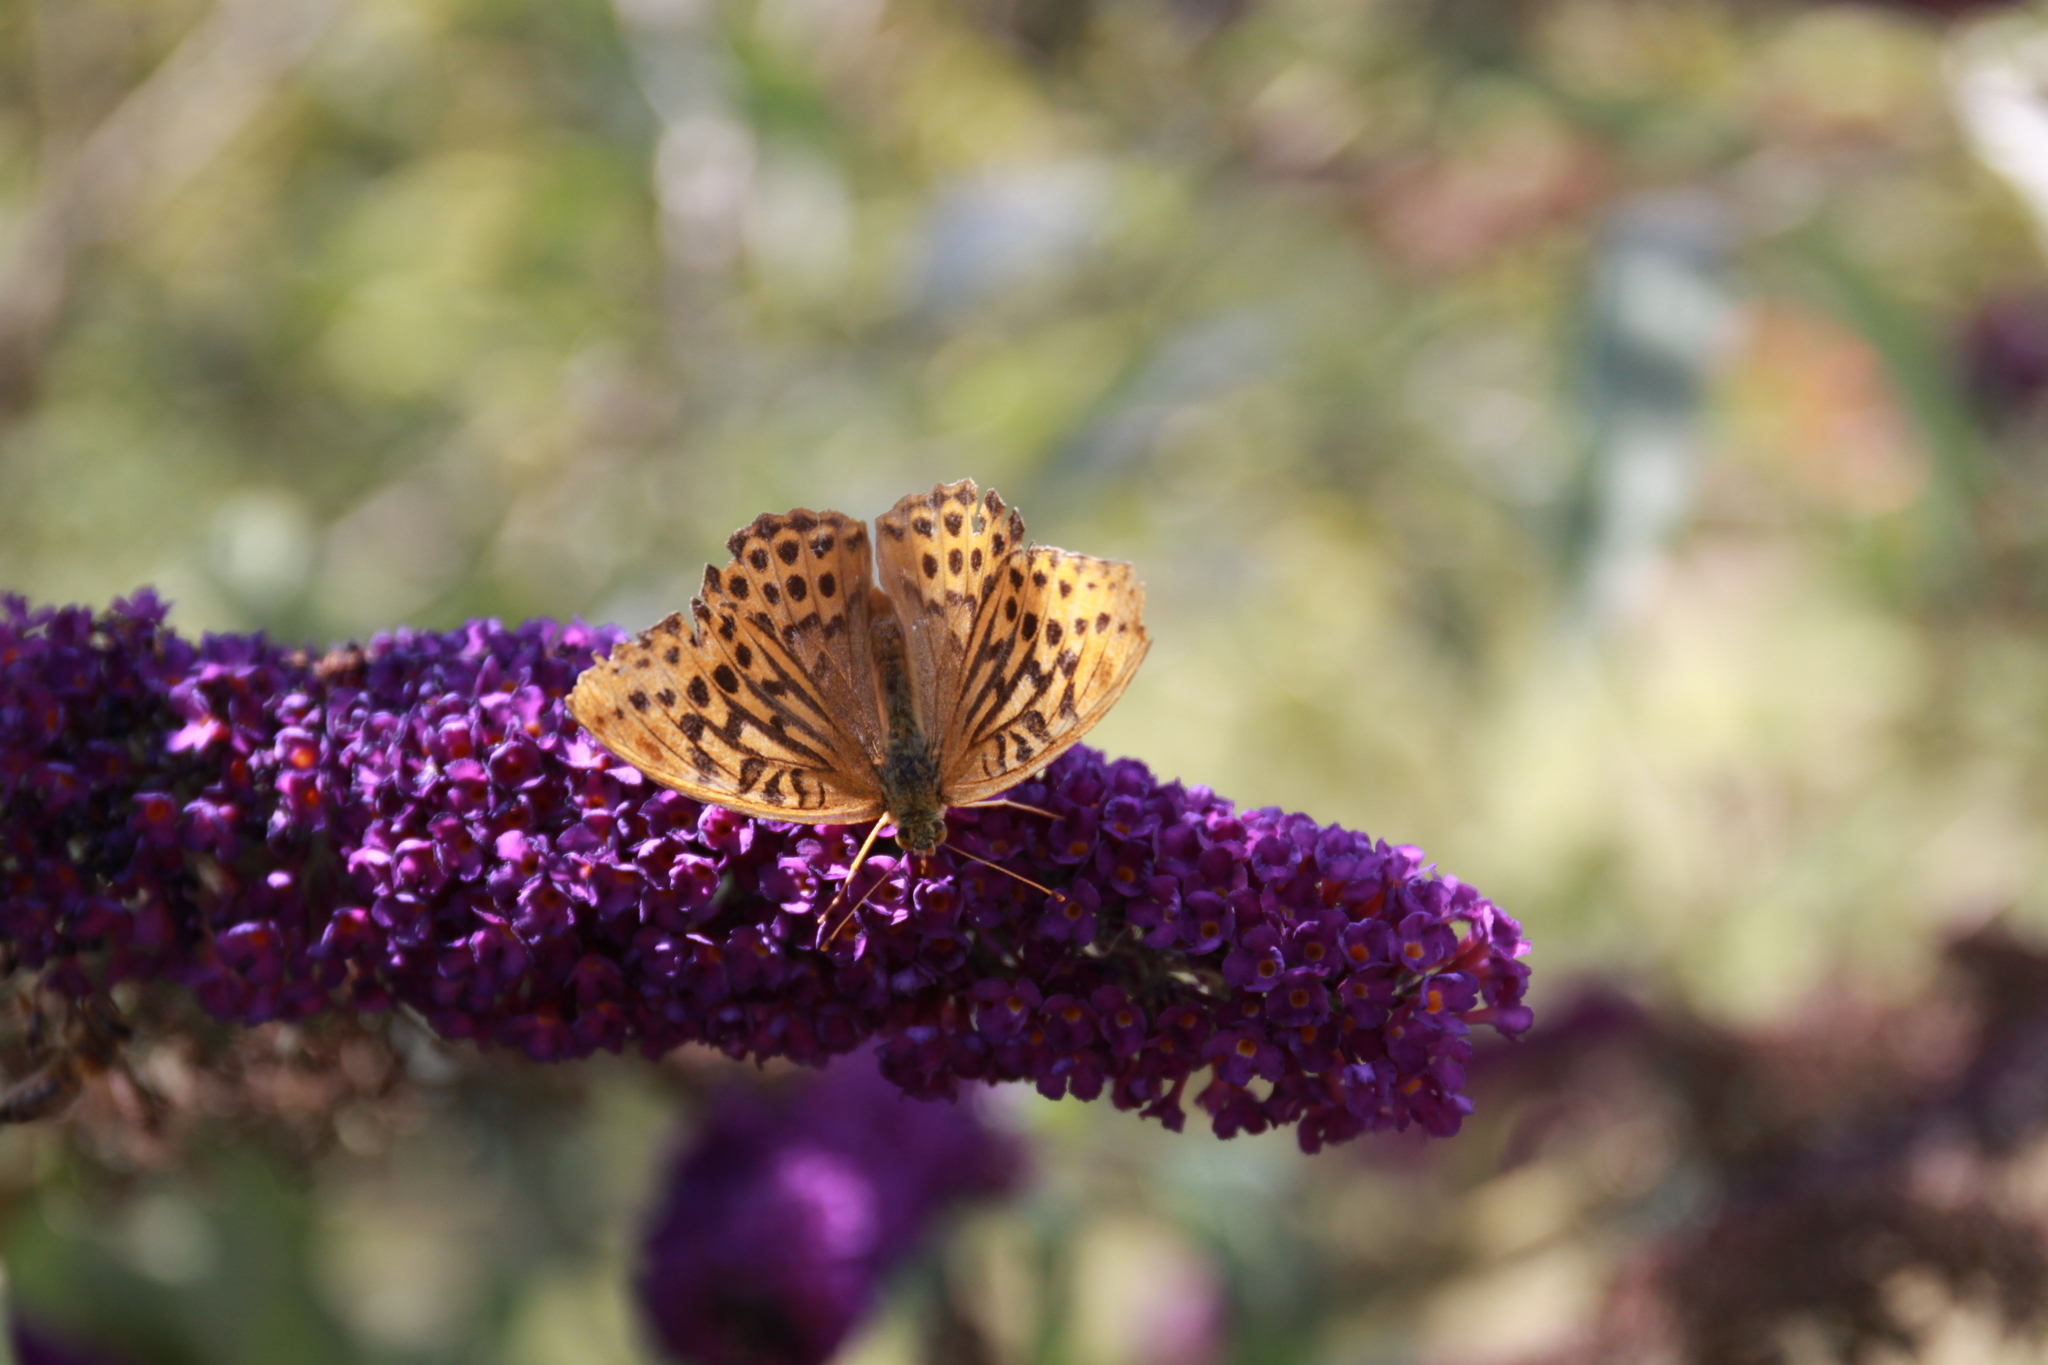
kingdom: Animalia
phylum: Arthropoda
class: Insecta
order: Lepidoptera
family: Nymphalidae
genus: Argynnis
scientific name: Argynnis paphia
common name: Silver-washed fritillary
